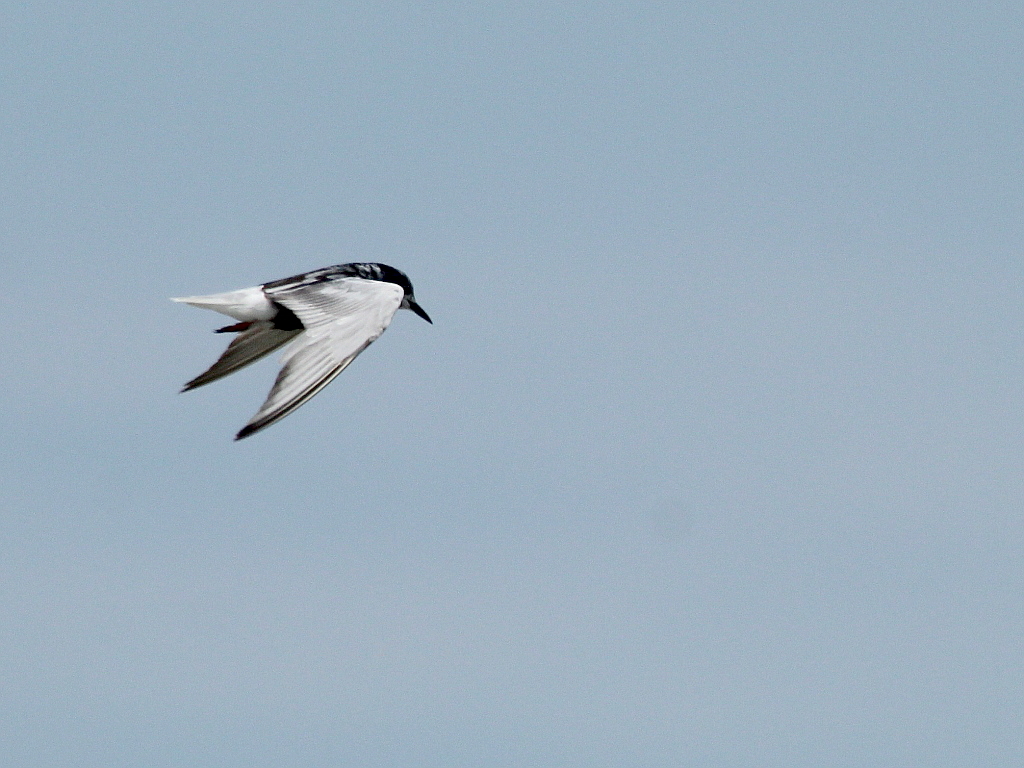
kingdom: Animalia
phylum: Chordata
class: Aves
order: Charadriiformes
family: Laridae
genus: Chlidonias
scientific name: Chlidonias leucopterus
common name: White-winged tern
